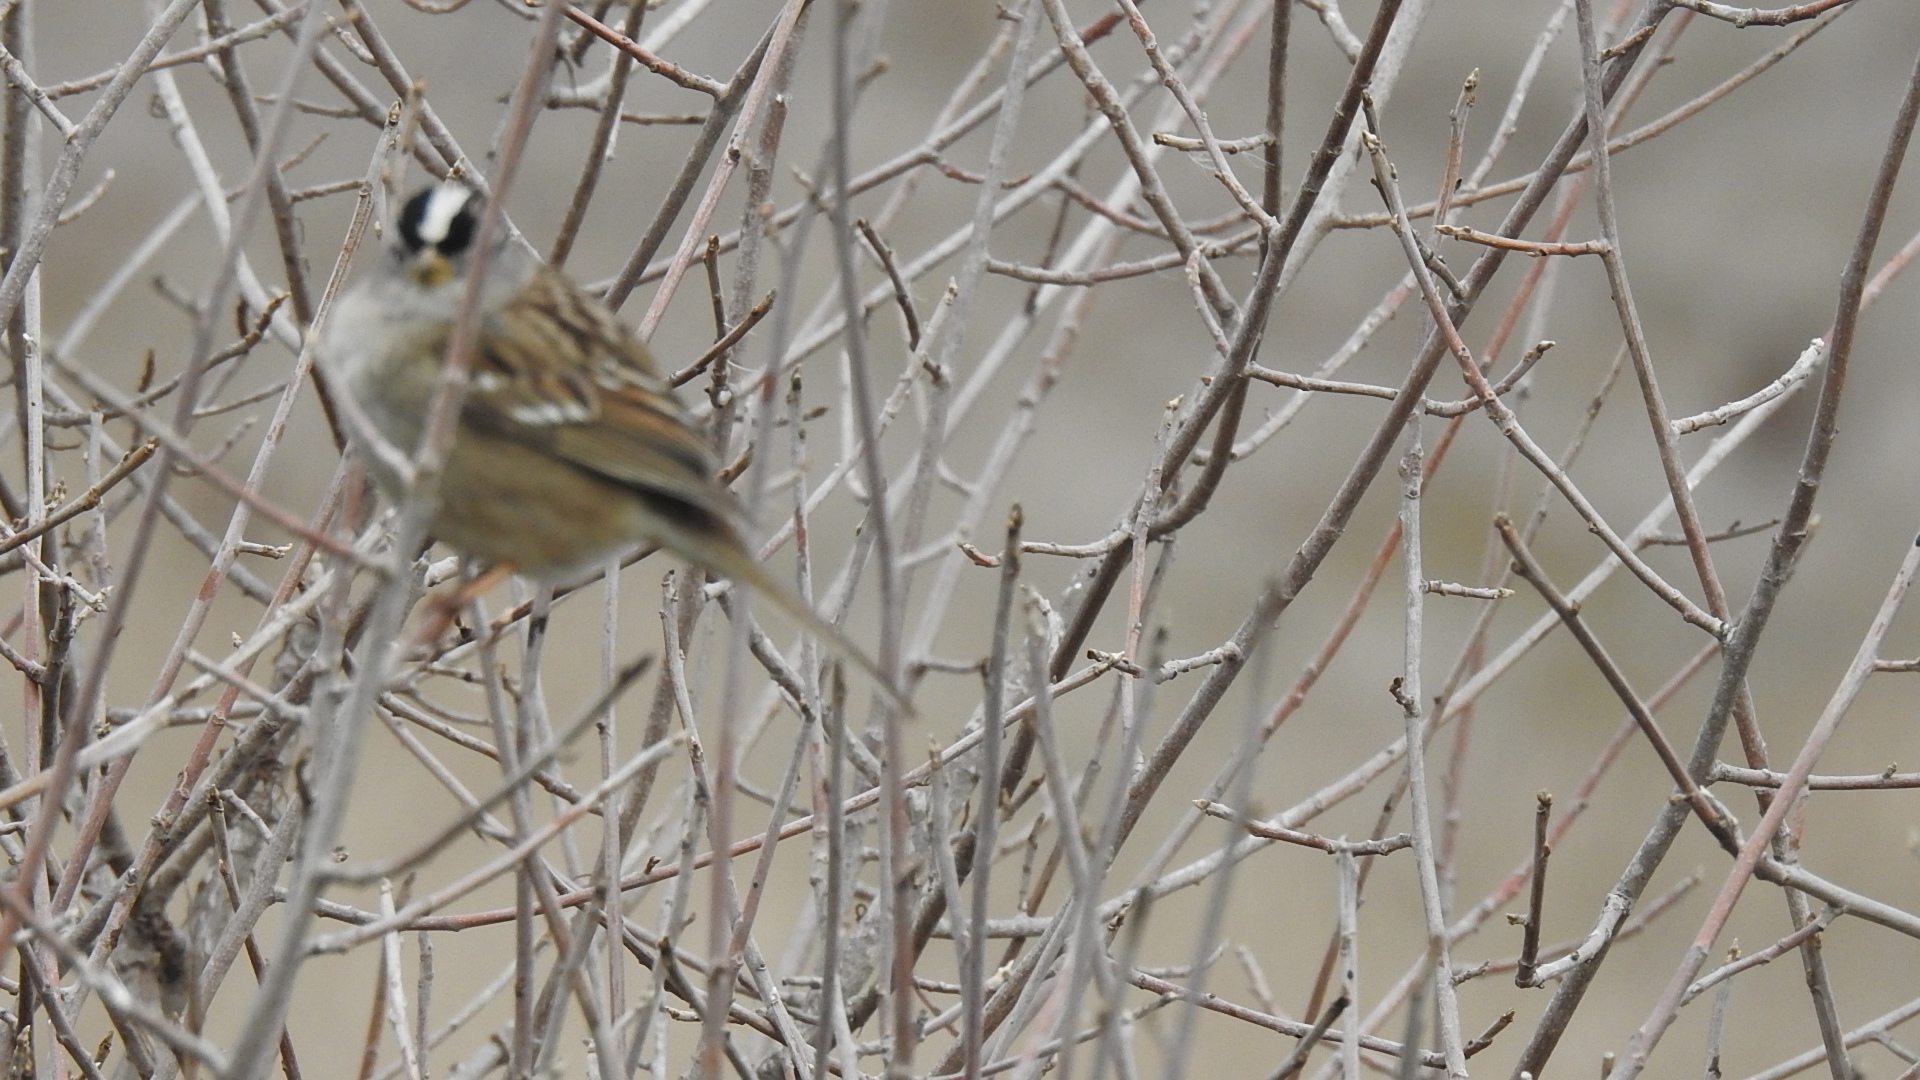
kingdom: Animalia
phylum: Chordata
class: Aves
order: Passeriformes
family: Passerellidae
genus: Zonotrichia
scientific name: Zonotrichia leucophrys
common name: White-crowned sparrow
